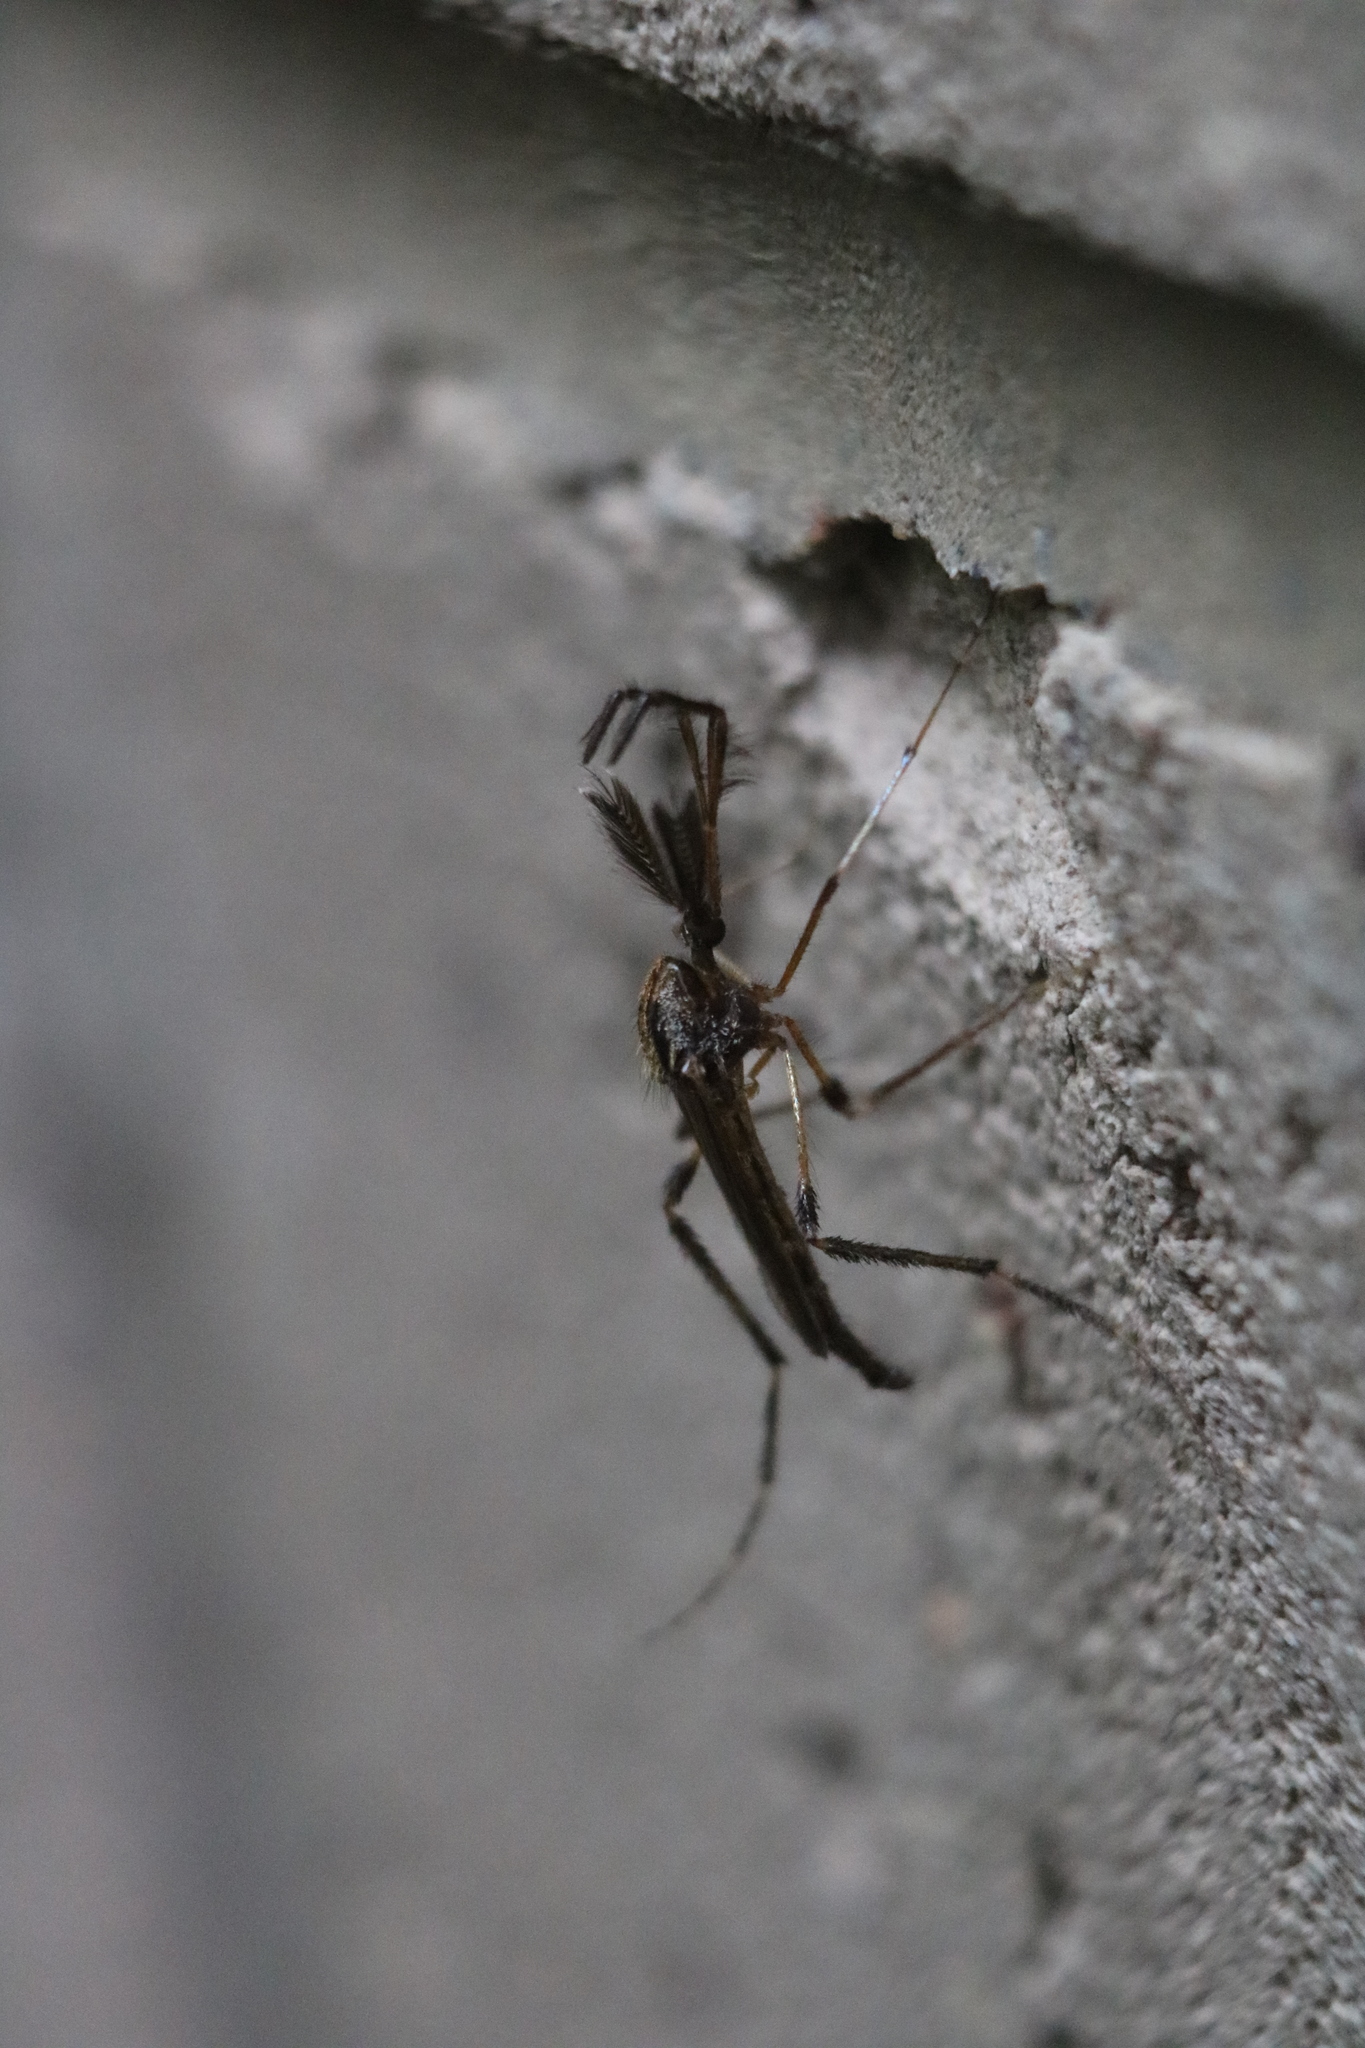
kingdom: Animalia
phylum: Arthropoda
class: Insecta
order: Diptera
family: Culicidae
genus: Psorophora
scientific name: Psorophora ciliata
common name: Gallinipper
